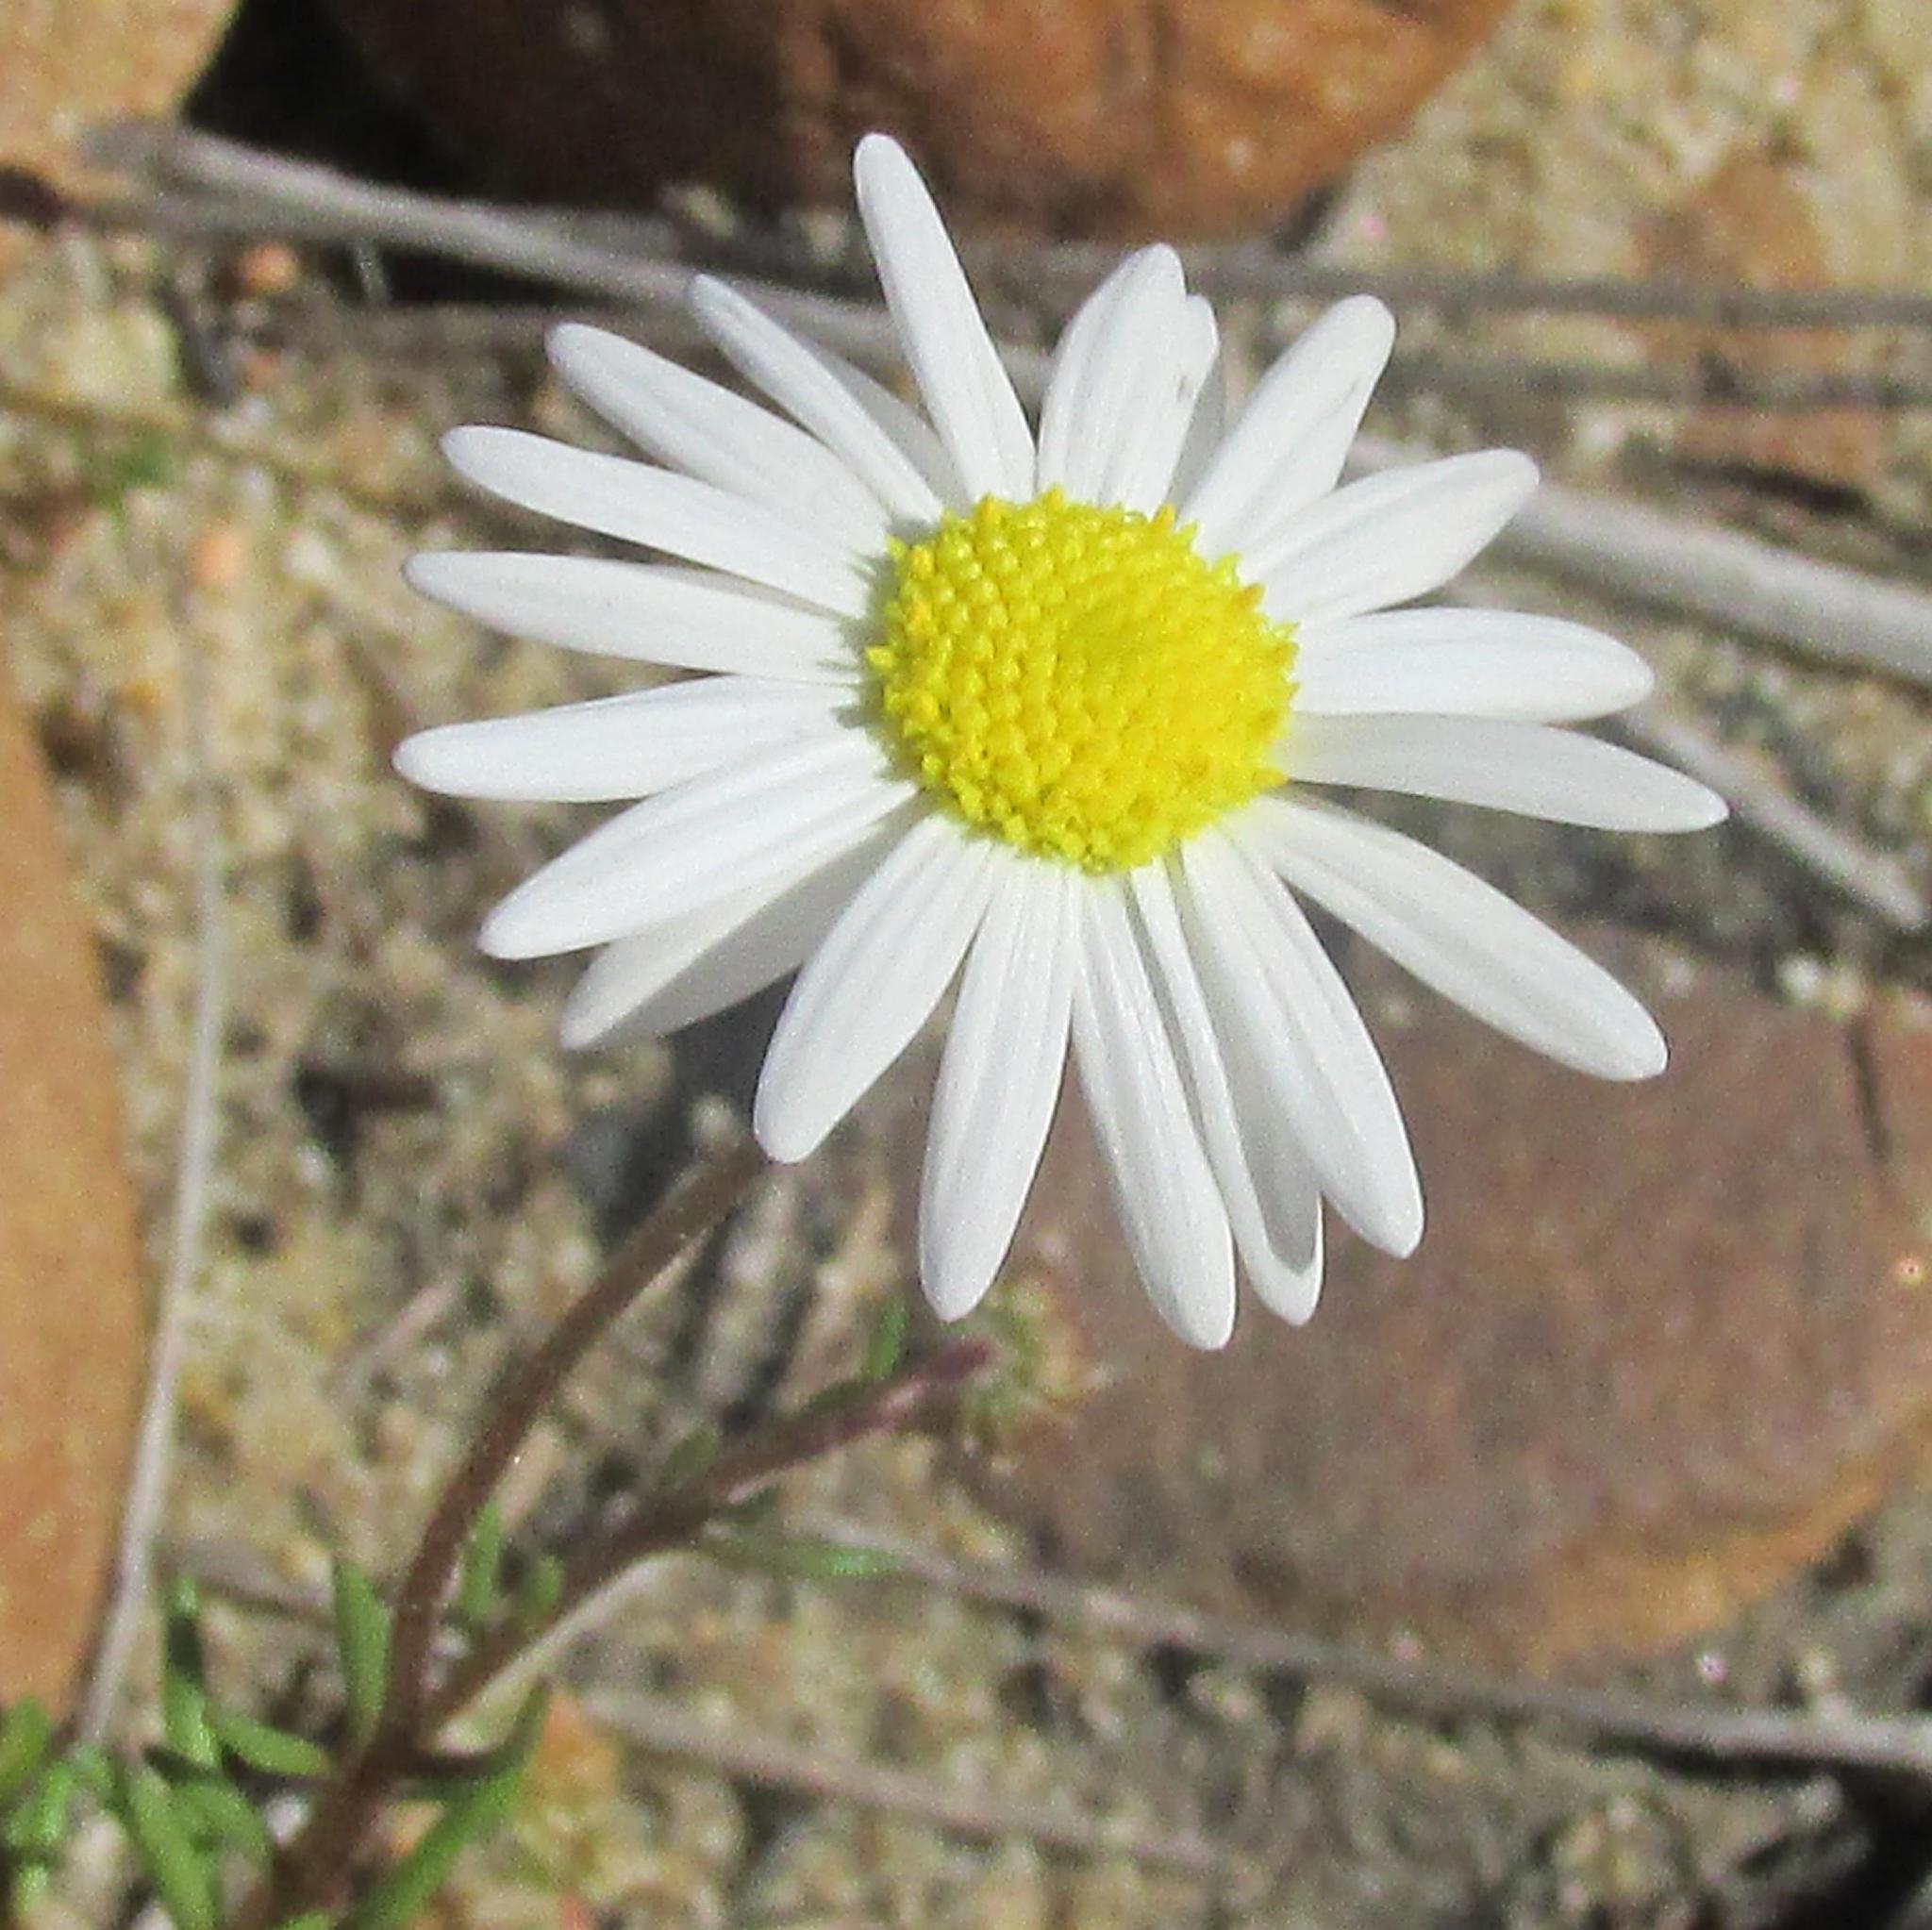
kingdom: Plantae
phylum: Tracheophyta
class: Magnoliopsida
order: Asterales
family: Asteraceae
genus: Felicia
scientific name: Felicia tenella
